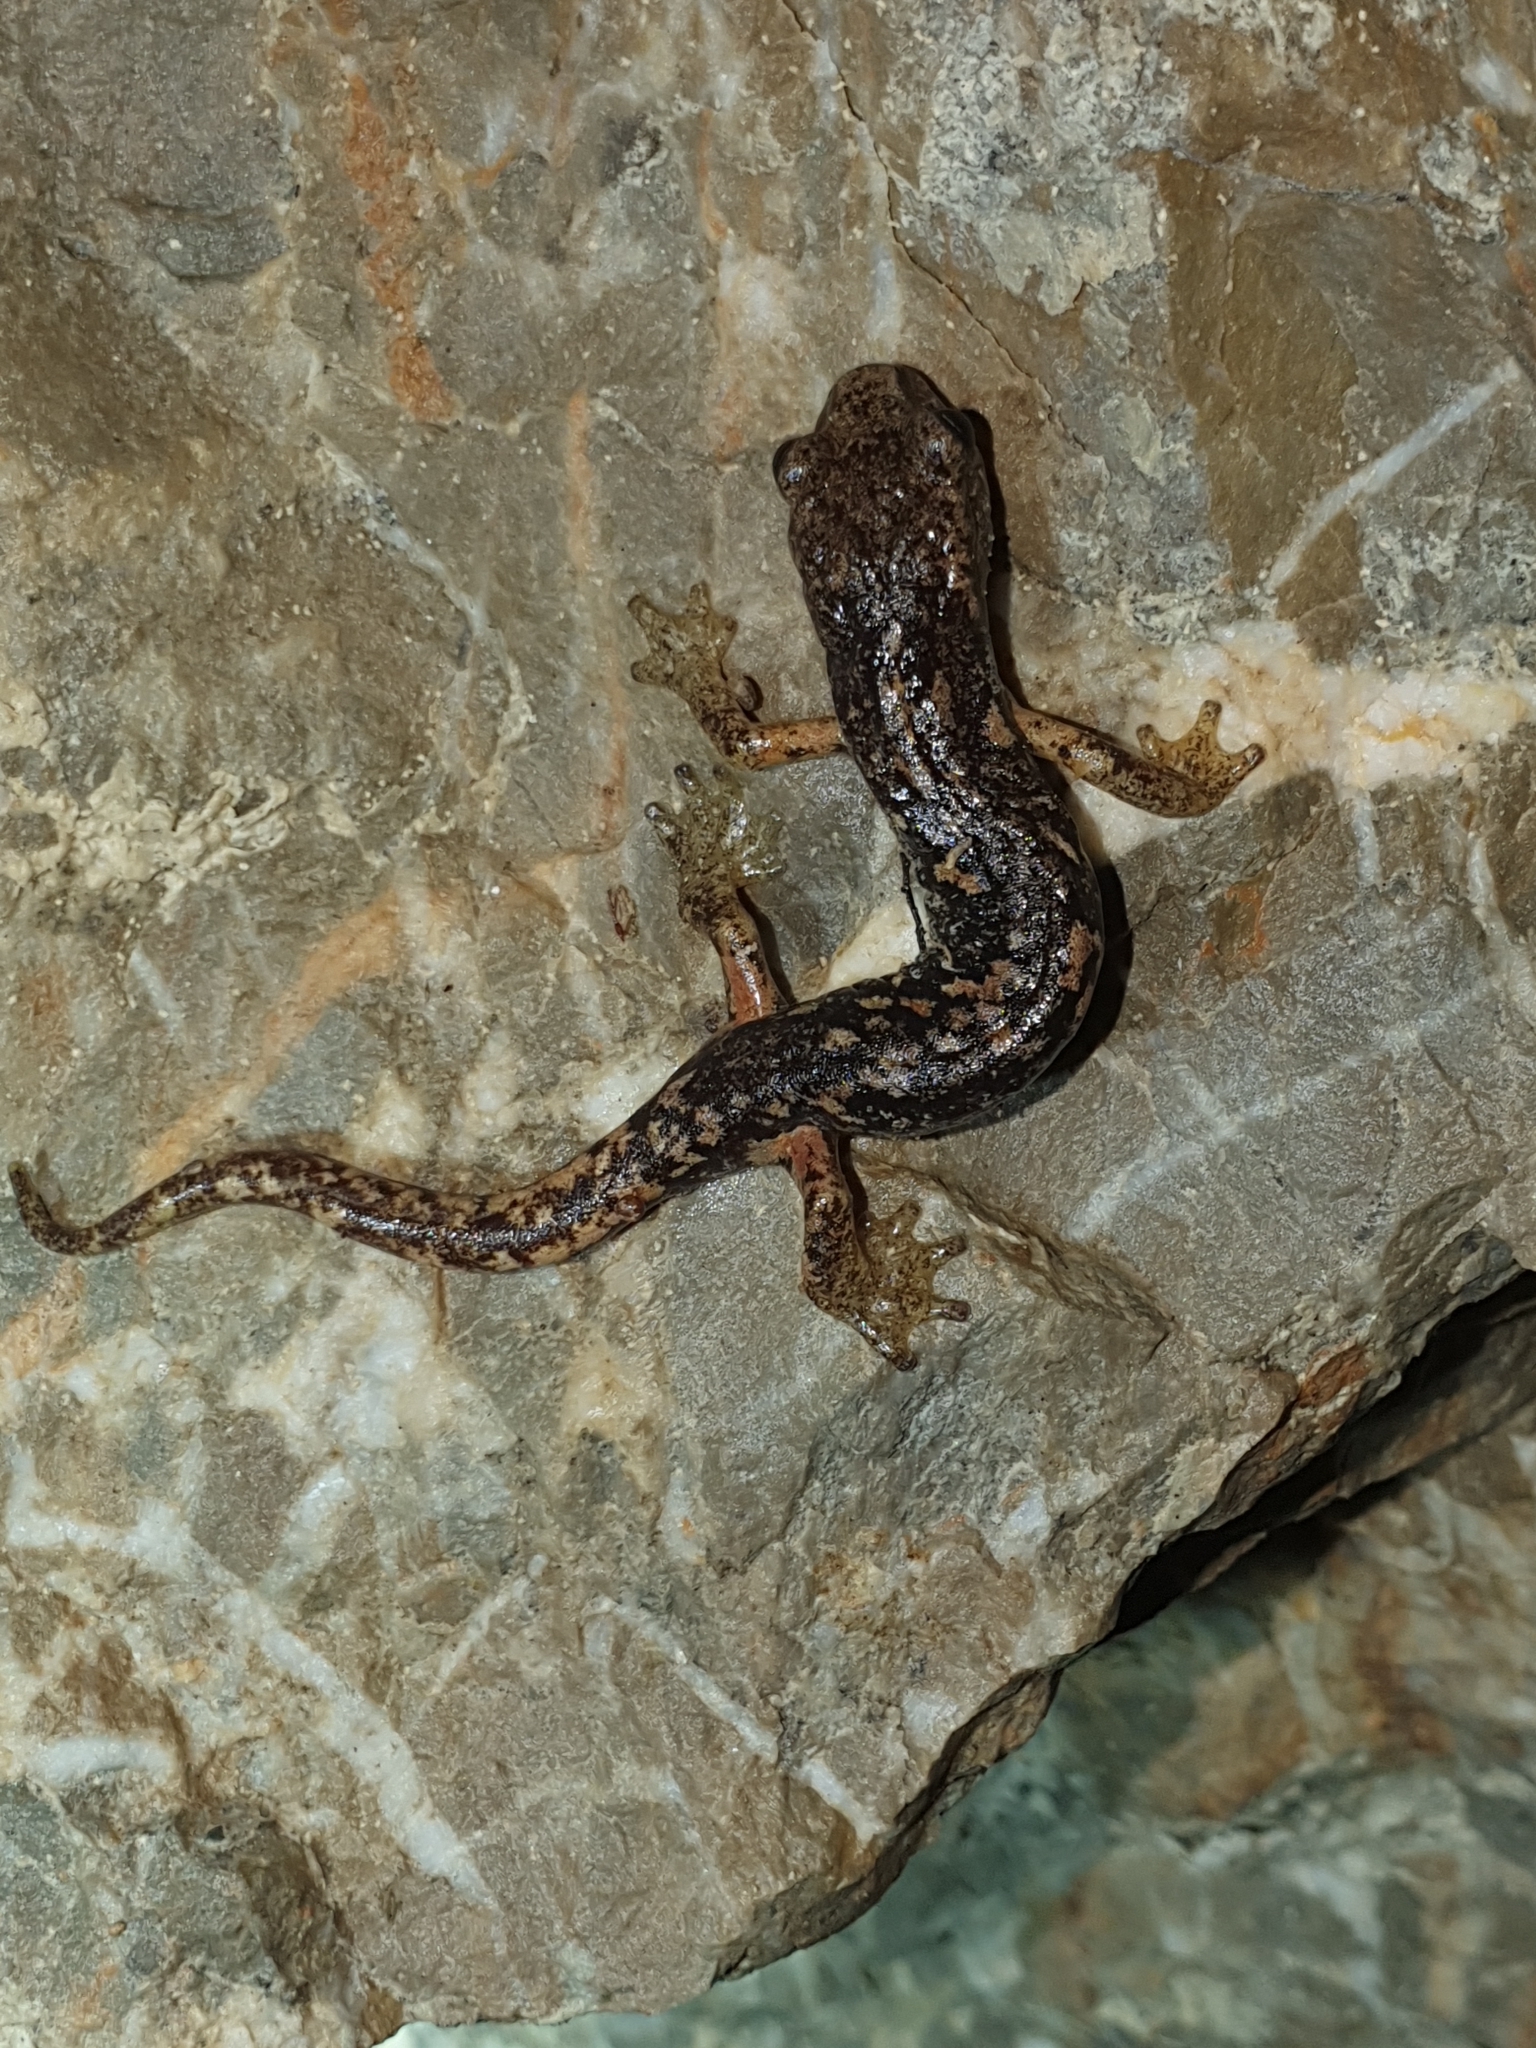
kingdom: Animalia
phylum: Chordata
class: Amphibia
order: Caudata
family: Plethodontidae
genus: Speleomantes
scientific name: Speleomantes ambrosii
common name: Ambrosi's cave salamander
